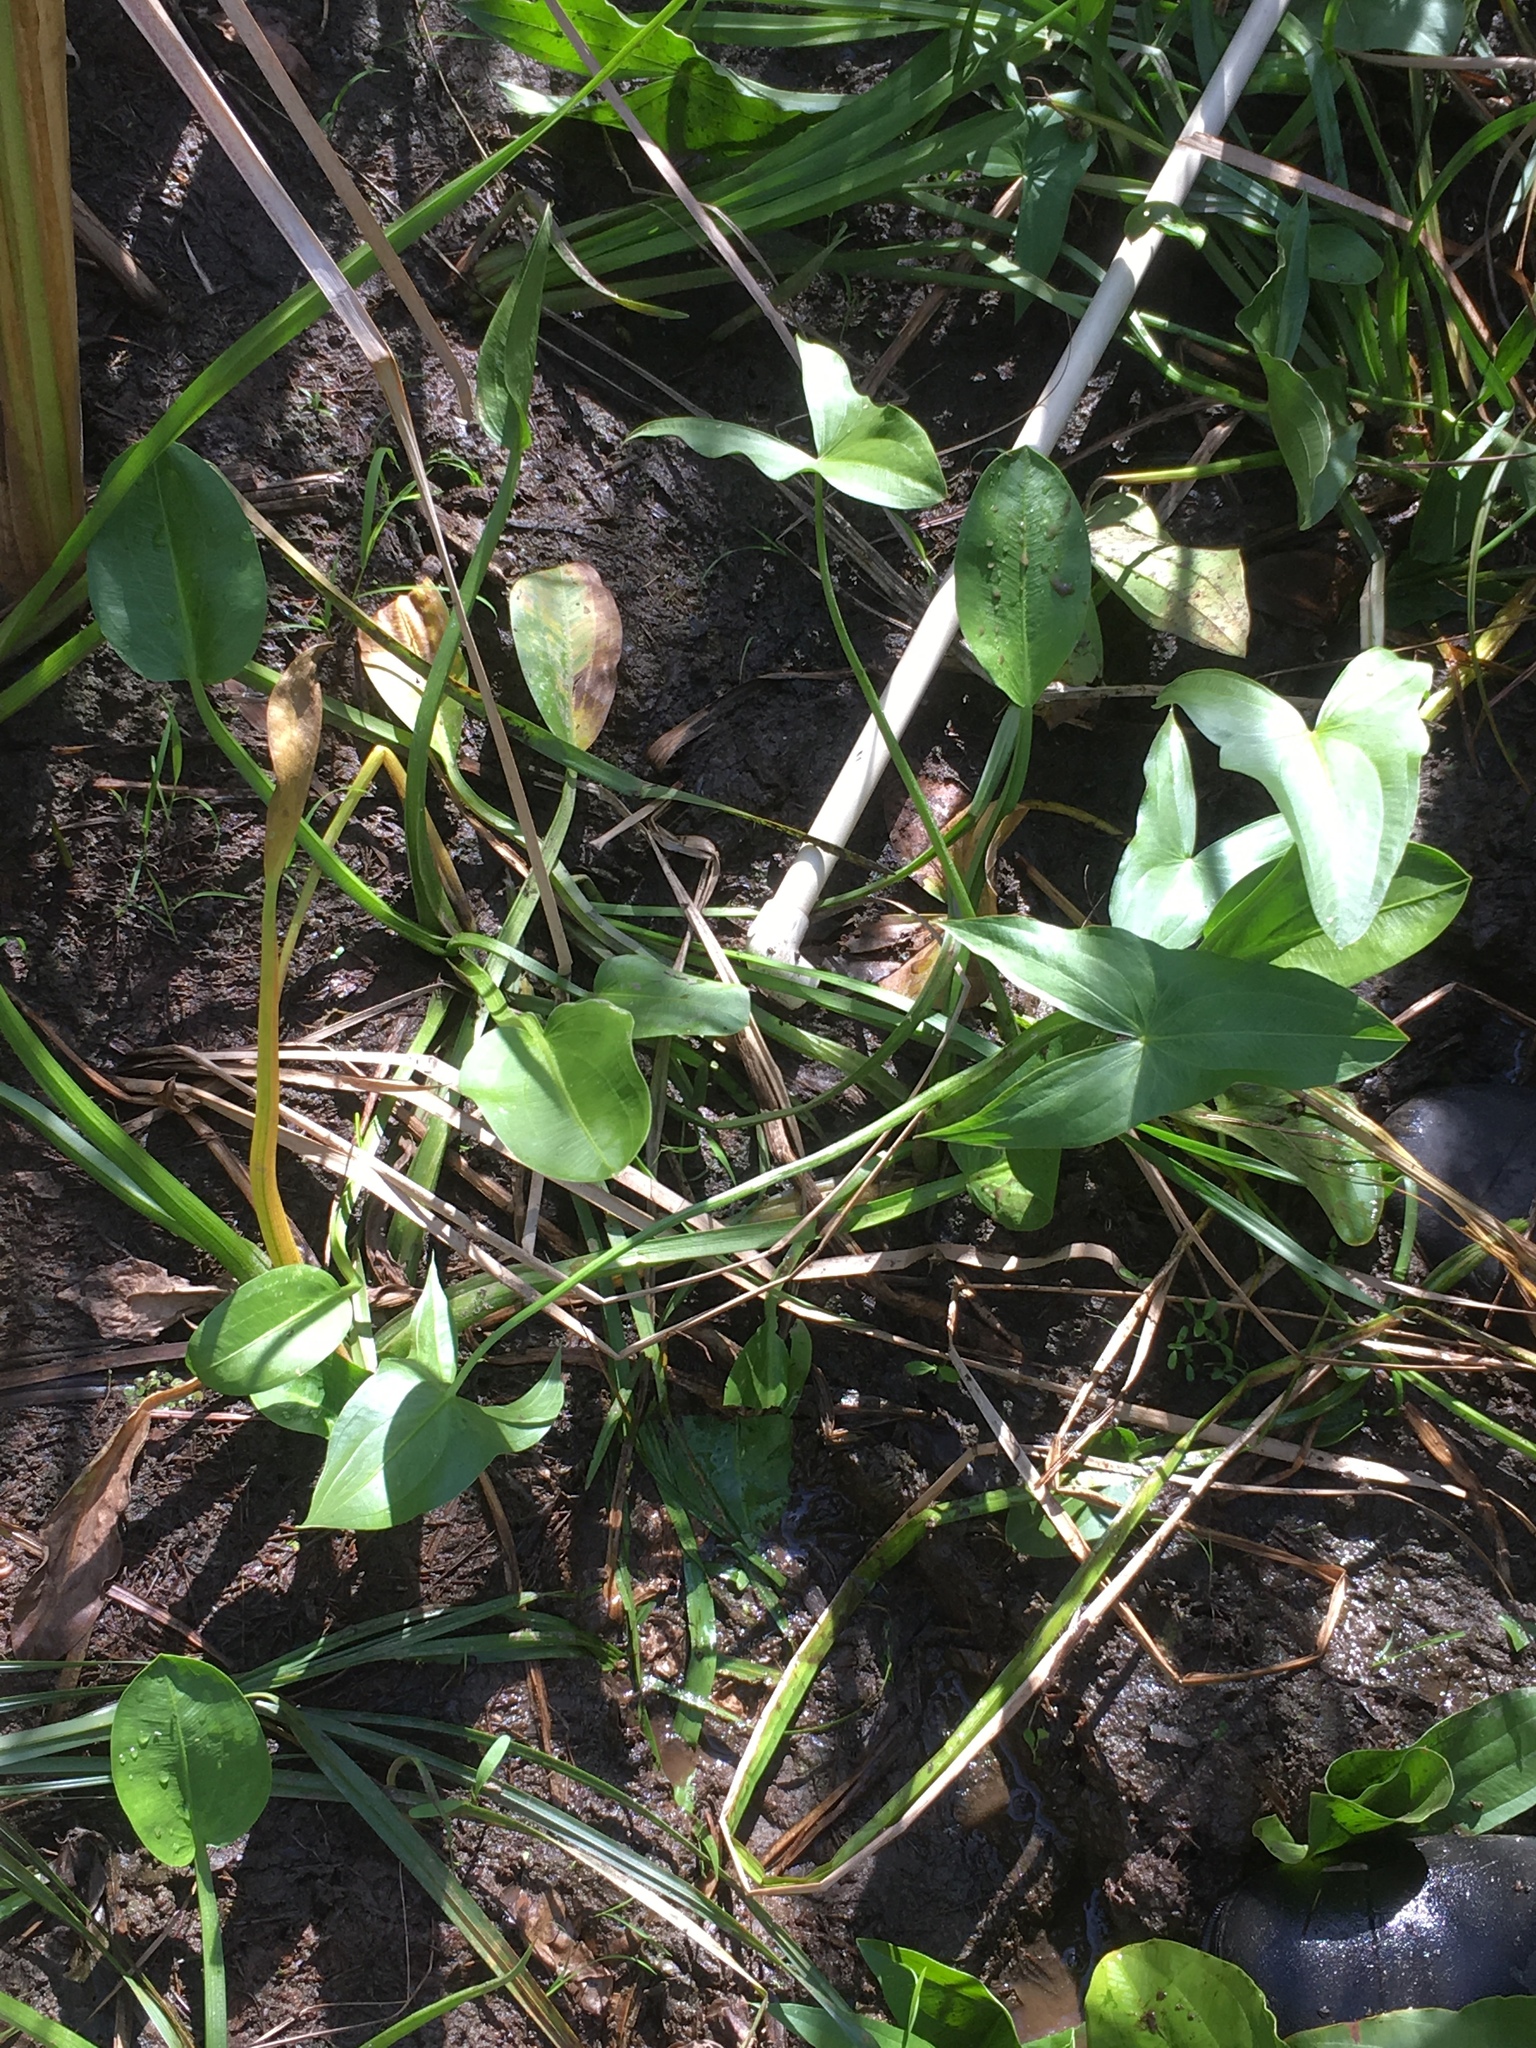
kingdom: Plantae
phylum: Tracheophyta
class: Liliopsida
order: Alismatales
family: Alismataceae
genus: Sagittaria
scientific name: Sagittaria rigida
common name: Canadian arrowhead
